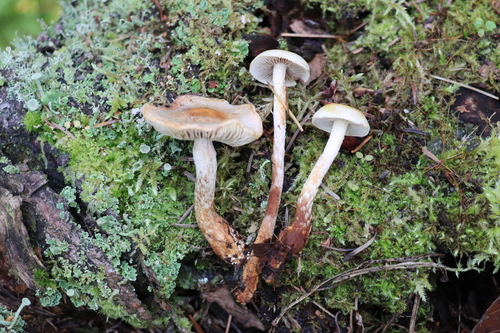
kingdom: Fungi
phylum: Basidiomycota
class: Agaricomycetes
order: Agaricales
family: Strophariaceae
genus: Hypholoma
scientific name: Hypholoma radicosum
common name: Rooting brownie
